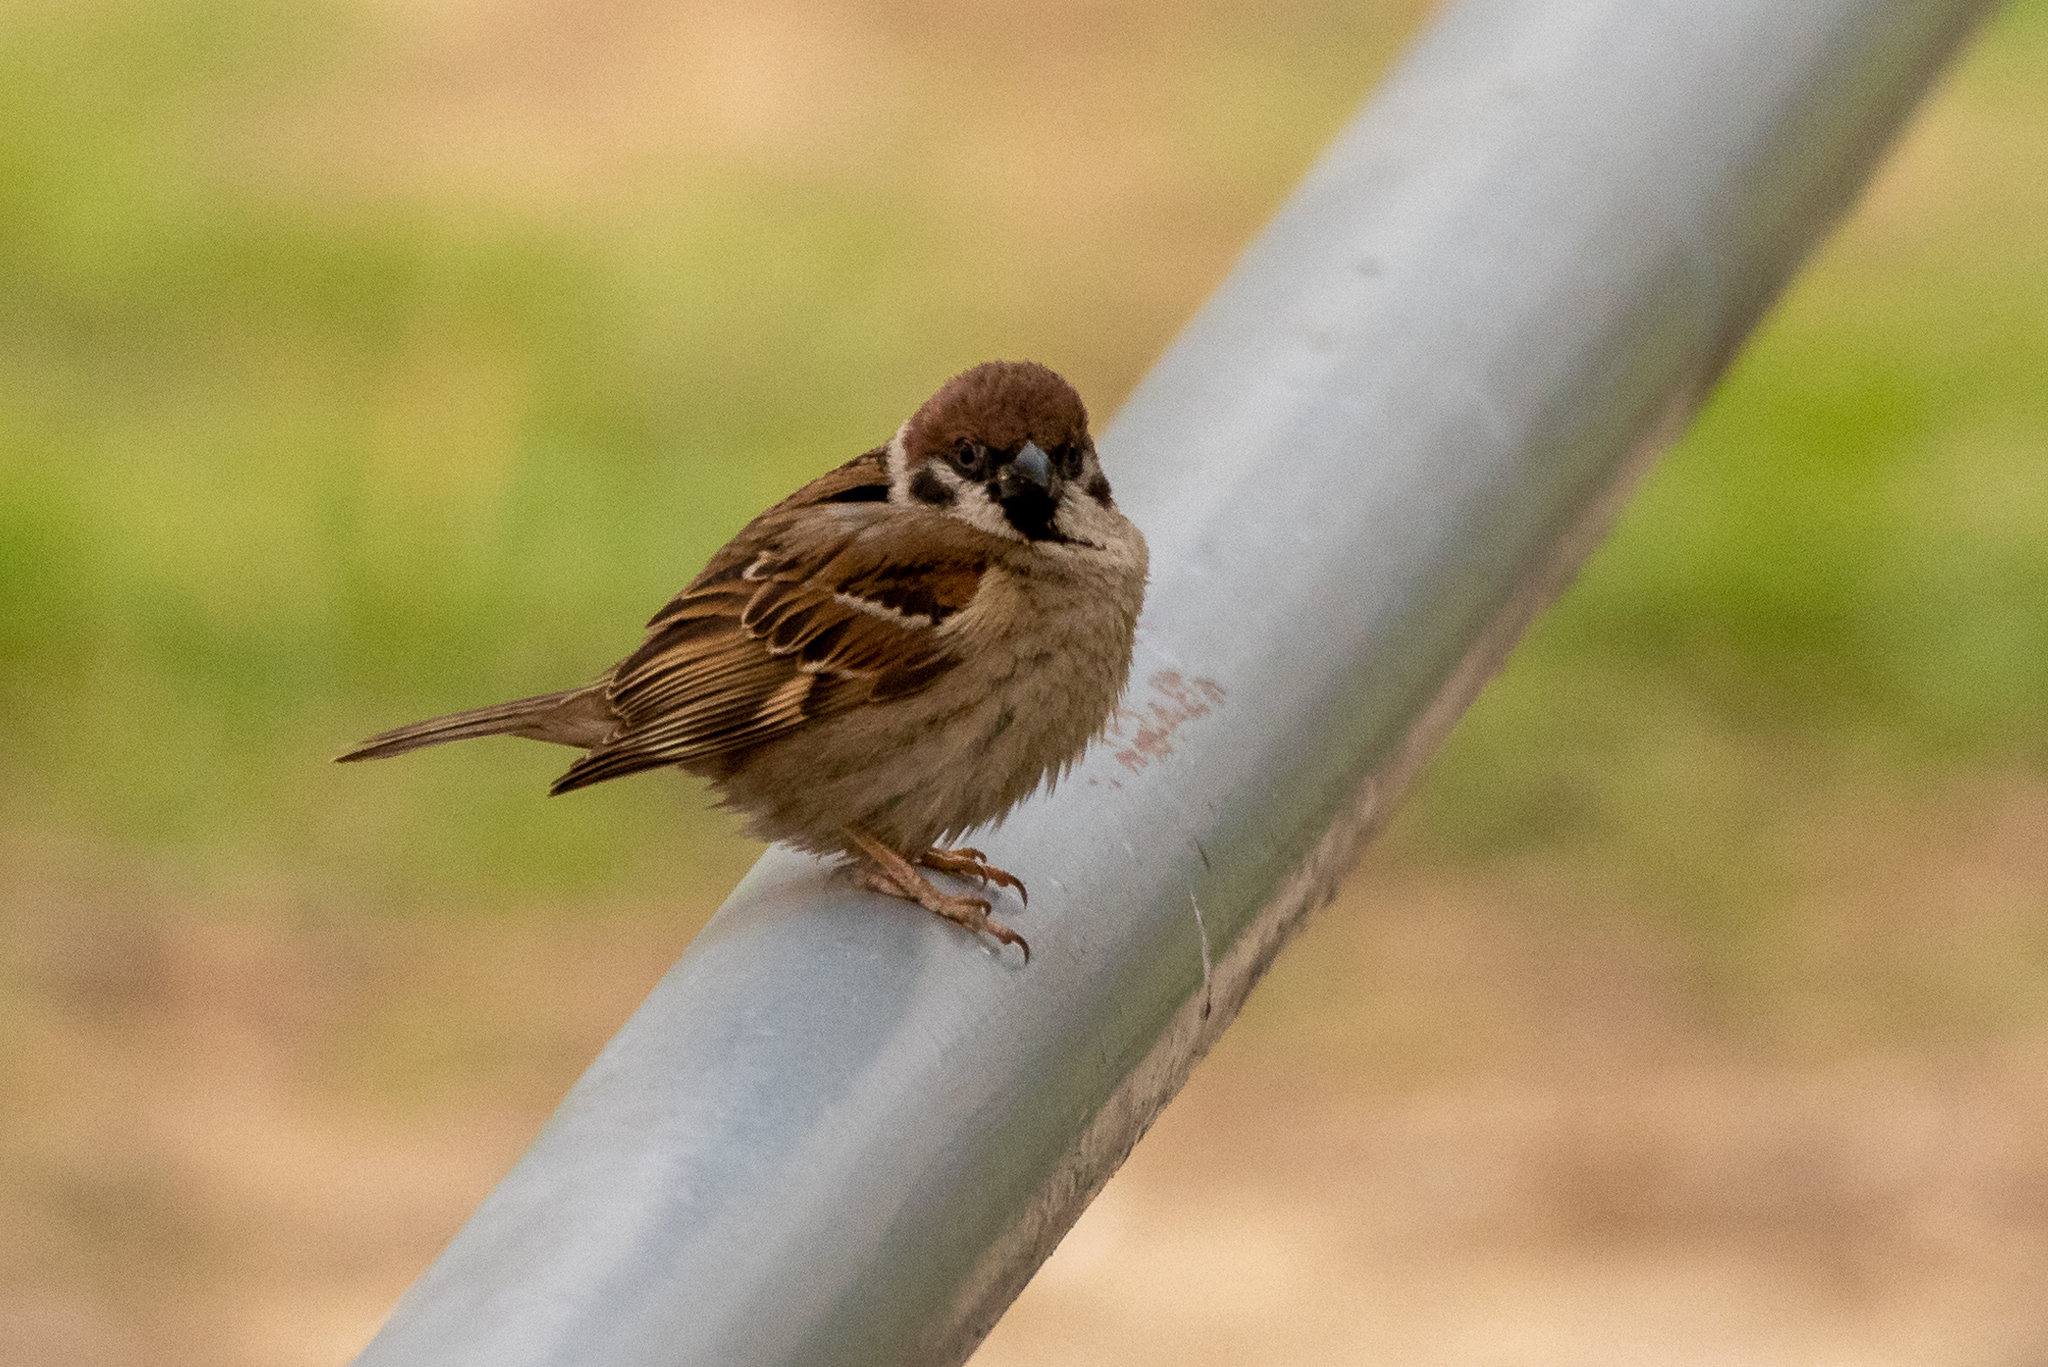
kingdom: Animalia
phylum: Chordata
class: Aves
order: Passeriformes
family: Passeridae
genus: Passer
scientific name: Passer montanus
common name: Eurasian tree sparrow
